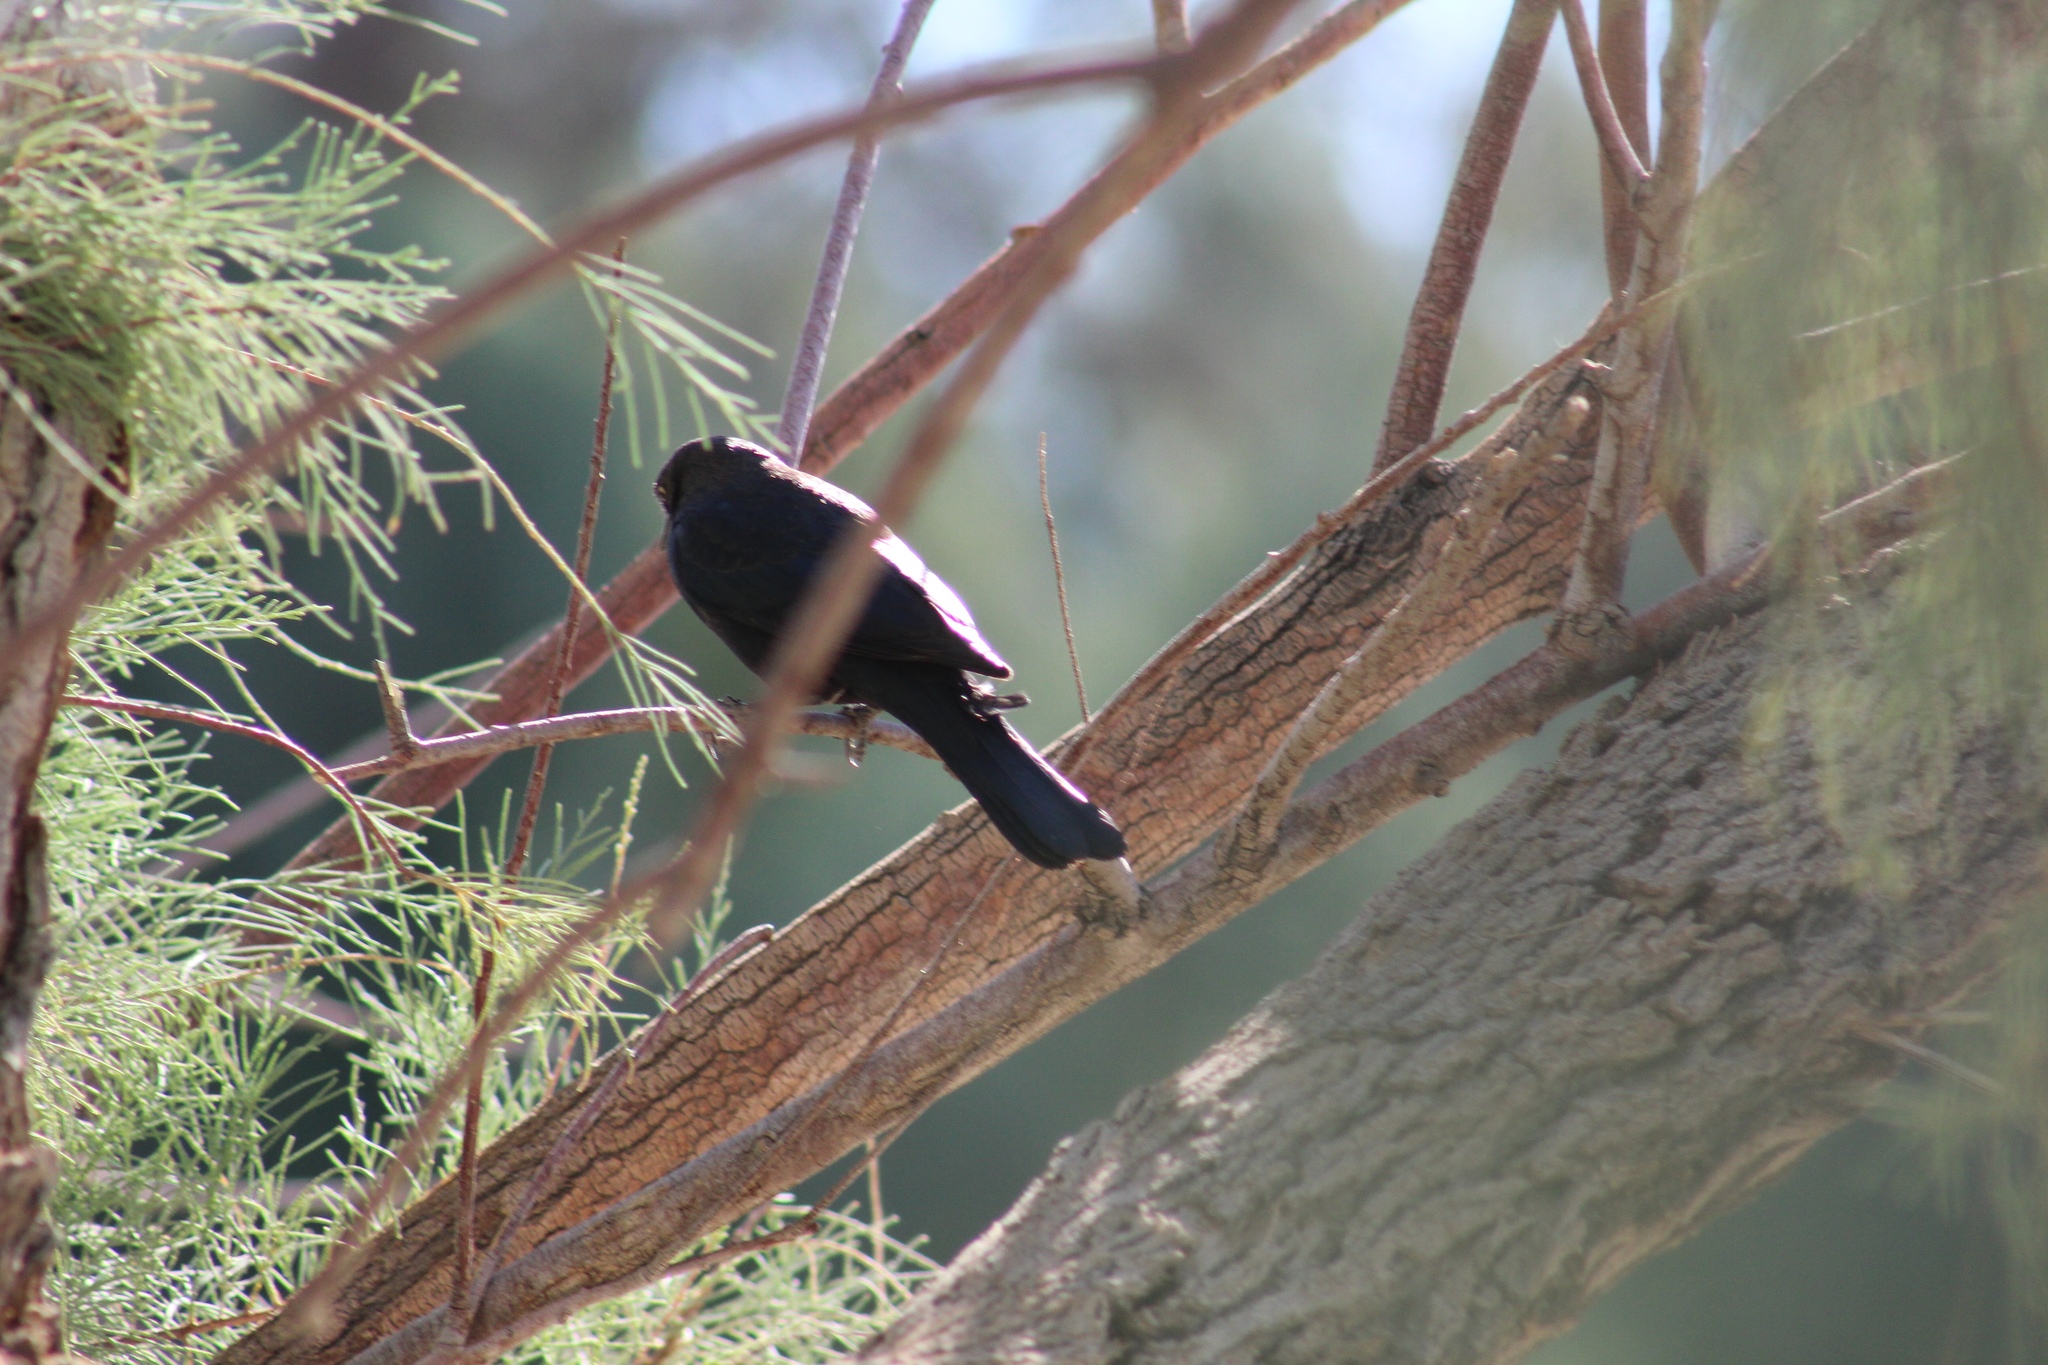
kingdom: Animalia
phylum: Chordata
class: Aves
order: Passeriformes
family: Icteridae
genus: Euphagus
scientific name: Euphagus cyanocephalus
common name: Brewer's blackbird
